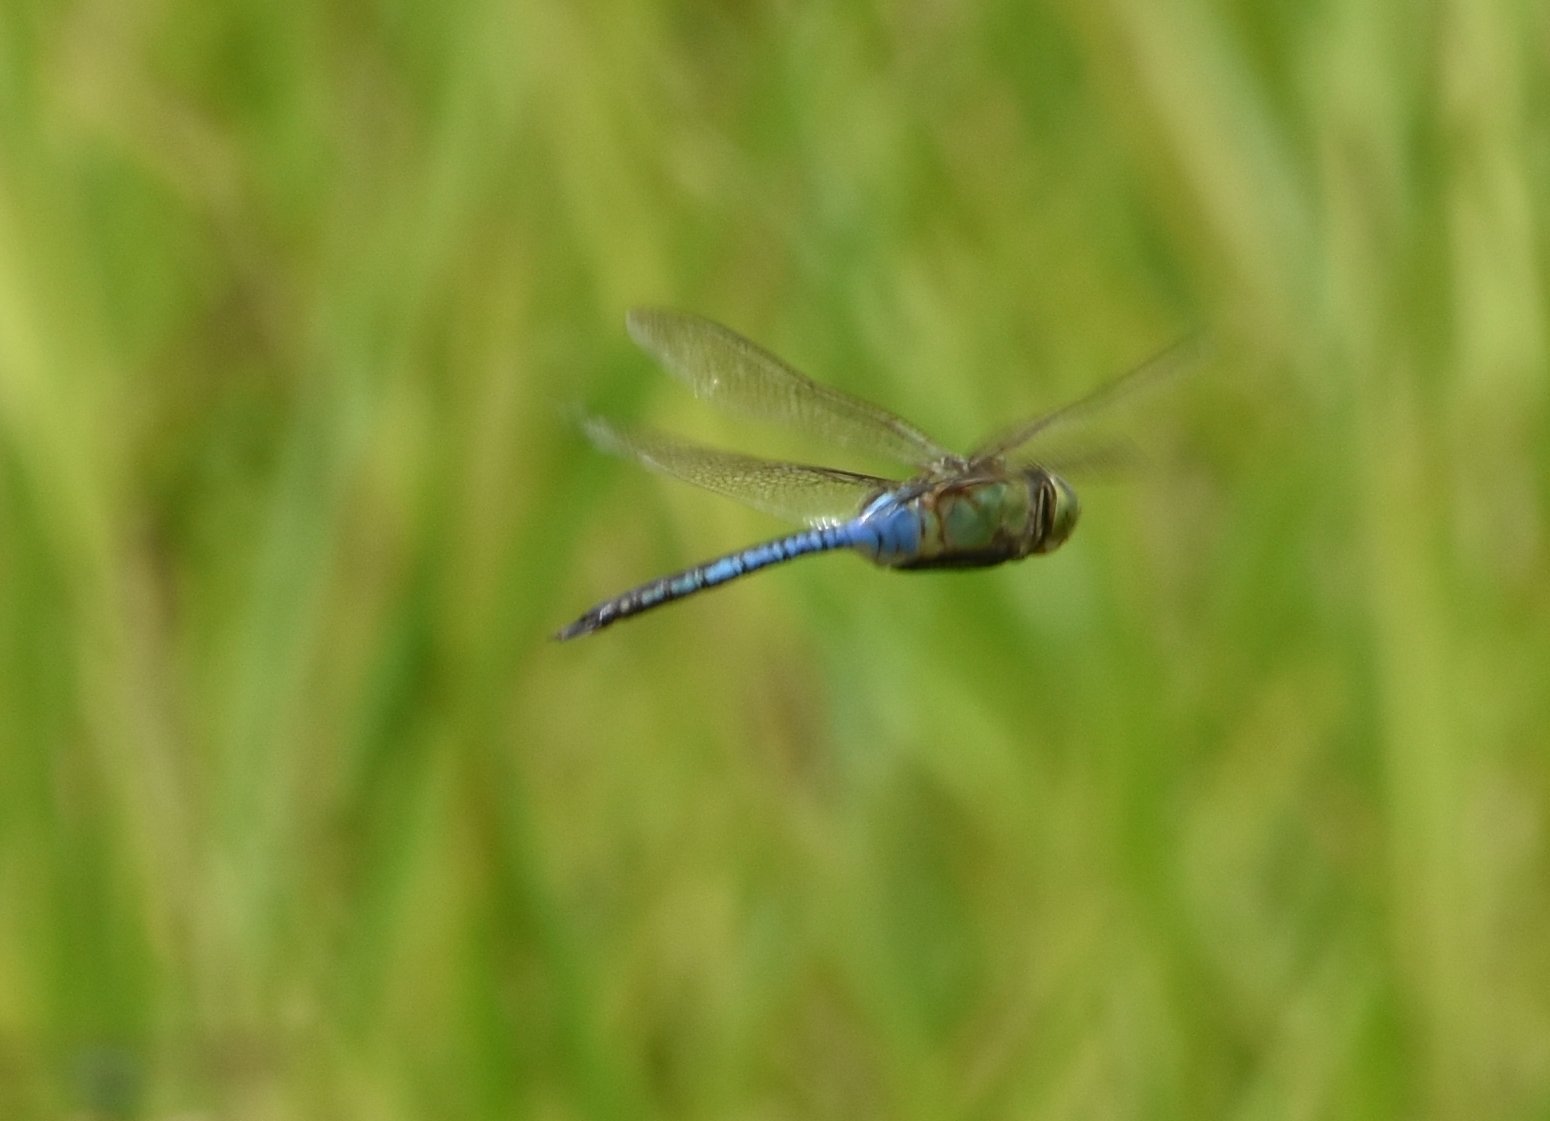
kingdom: Animalia
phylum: Arthropoda
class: Insecta
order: Odonata
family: Aeshnidae
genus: Anax
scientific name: Anax junius
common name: Common green darner
